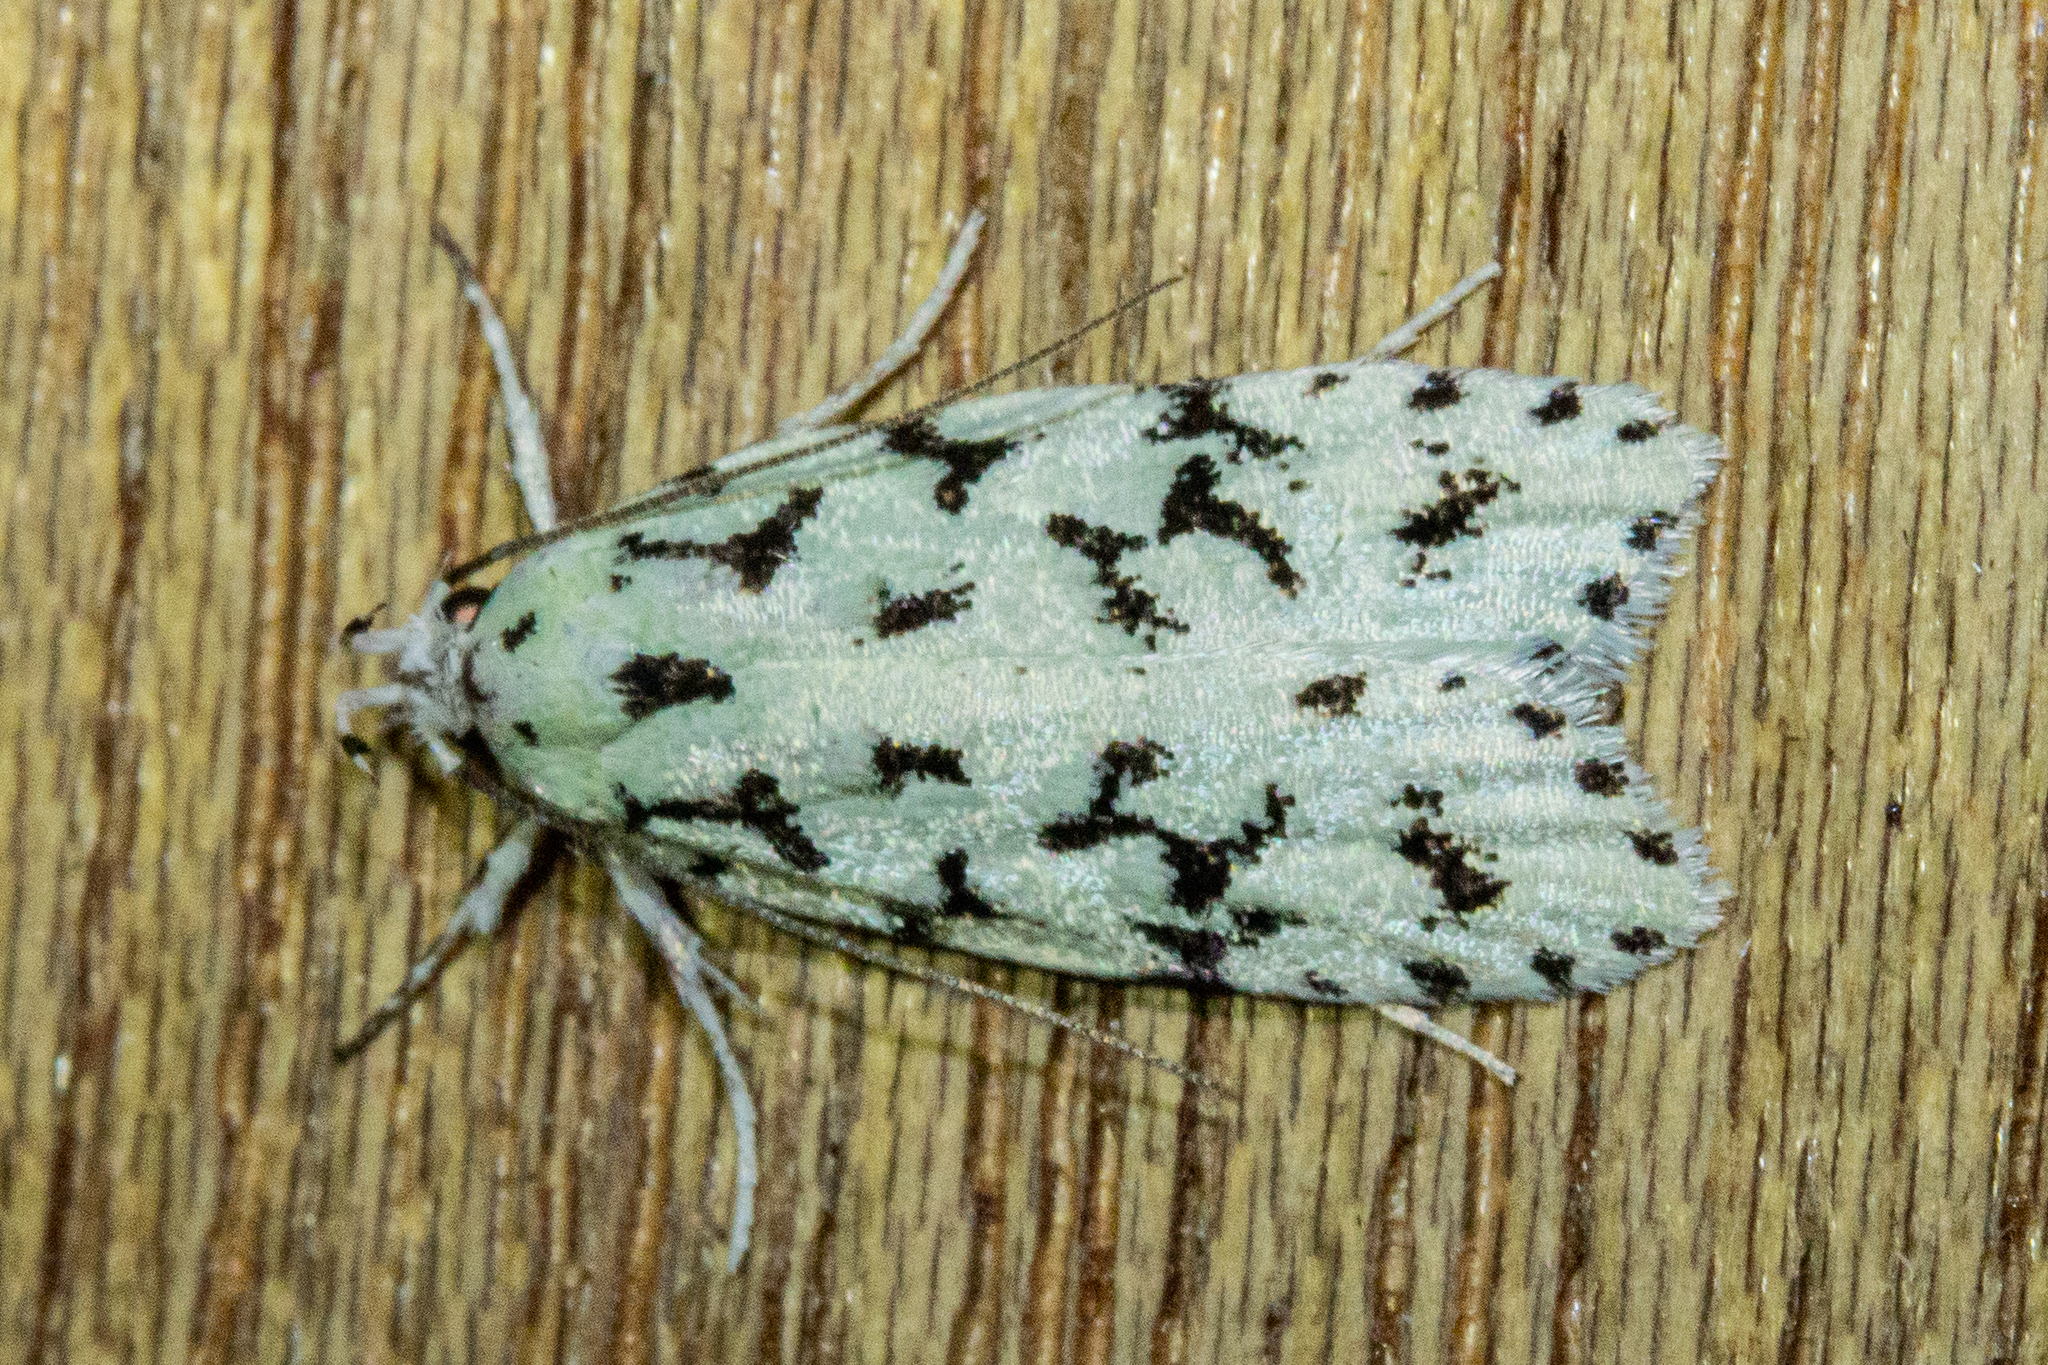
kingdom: Animalia
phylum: Arthropoda
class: Insecta
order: Lepidoptera
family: Oecophoridae
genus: Izatha
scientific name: Izatha huttoni
